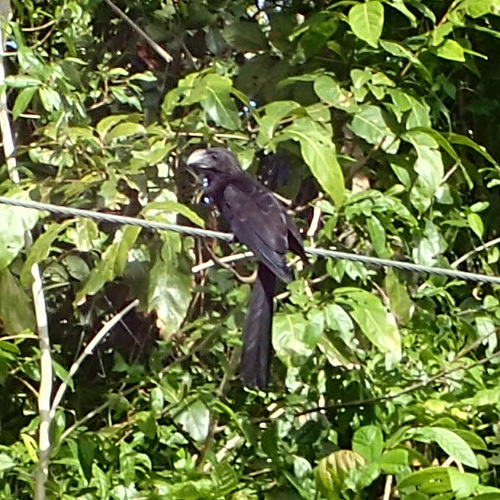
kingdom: Animalia
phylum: Chordata
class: Aves
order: Cuculiformes
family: Cuculidae
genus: Crotophaga
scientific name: Crotophaga ani
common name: Smooth-billed ani
